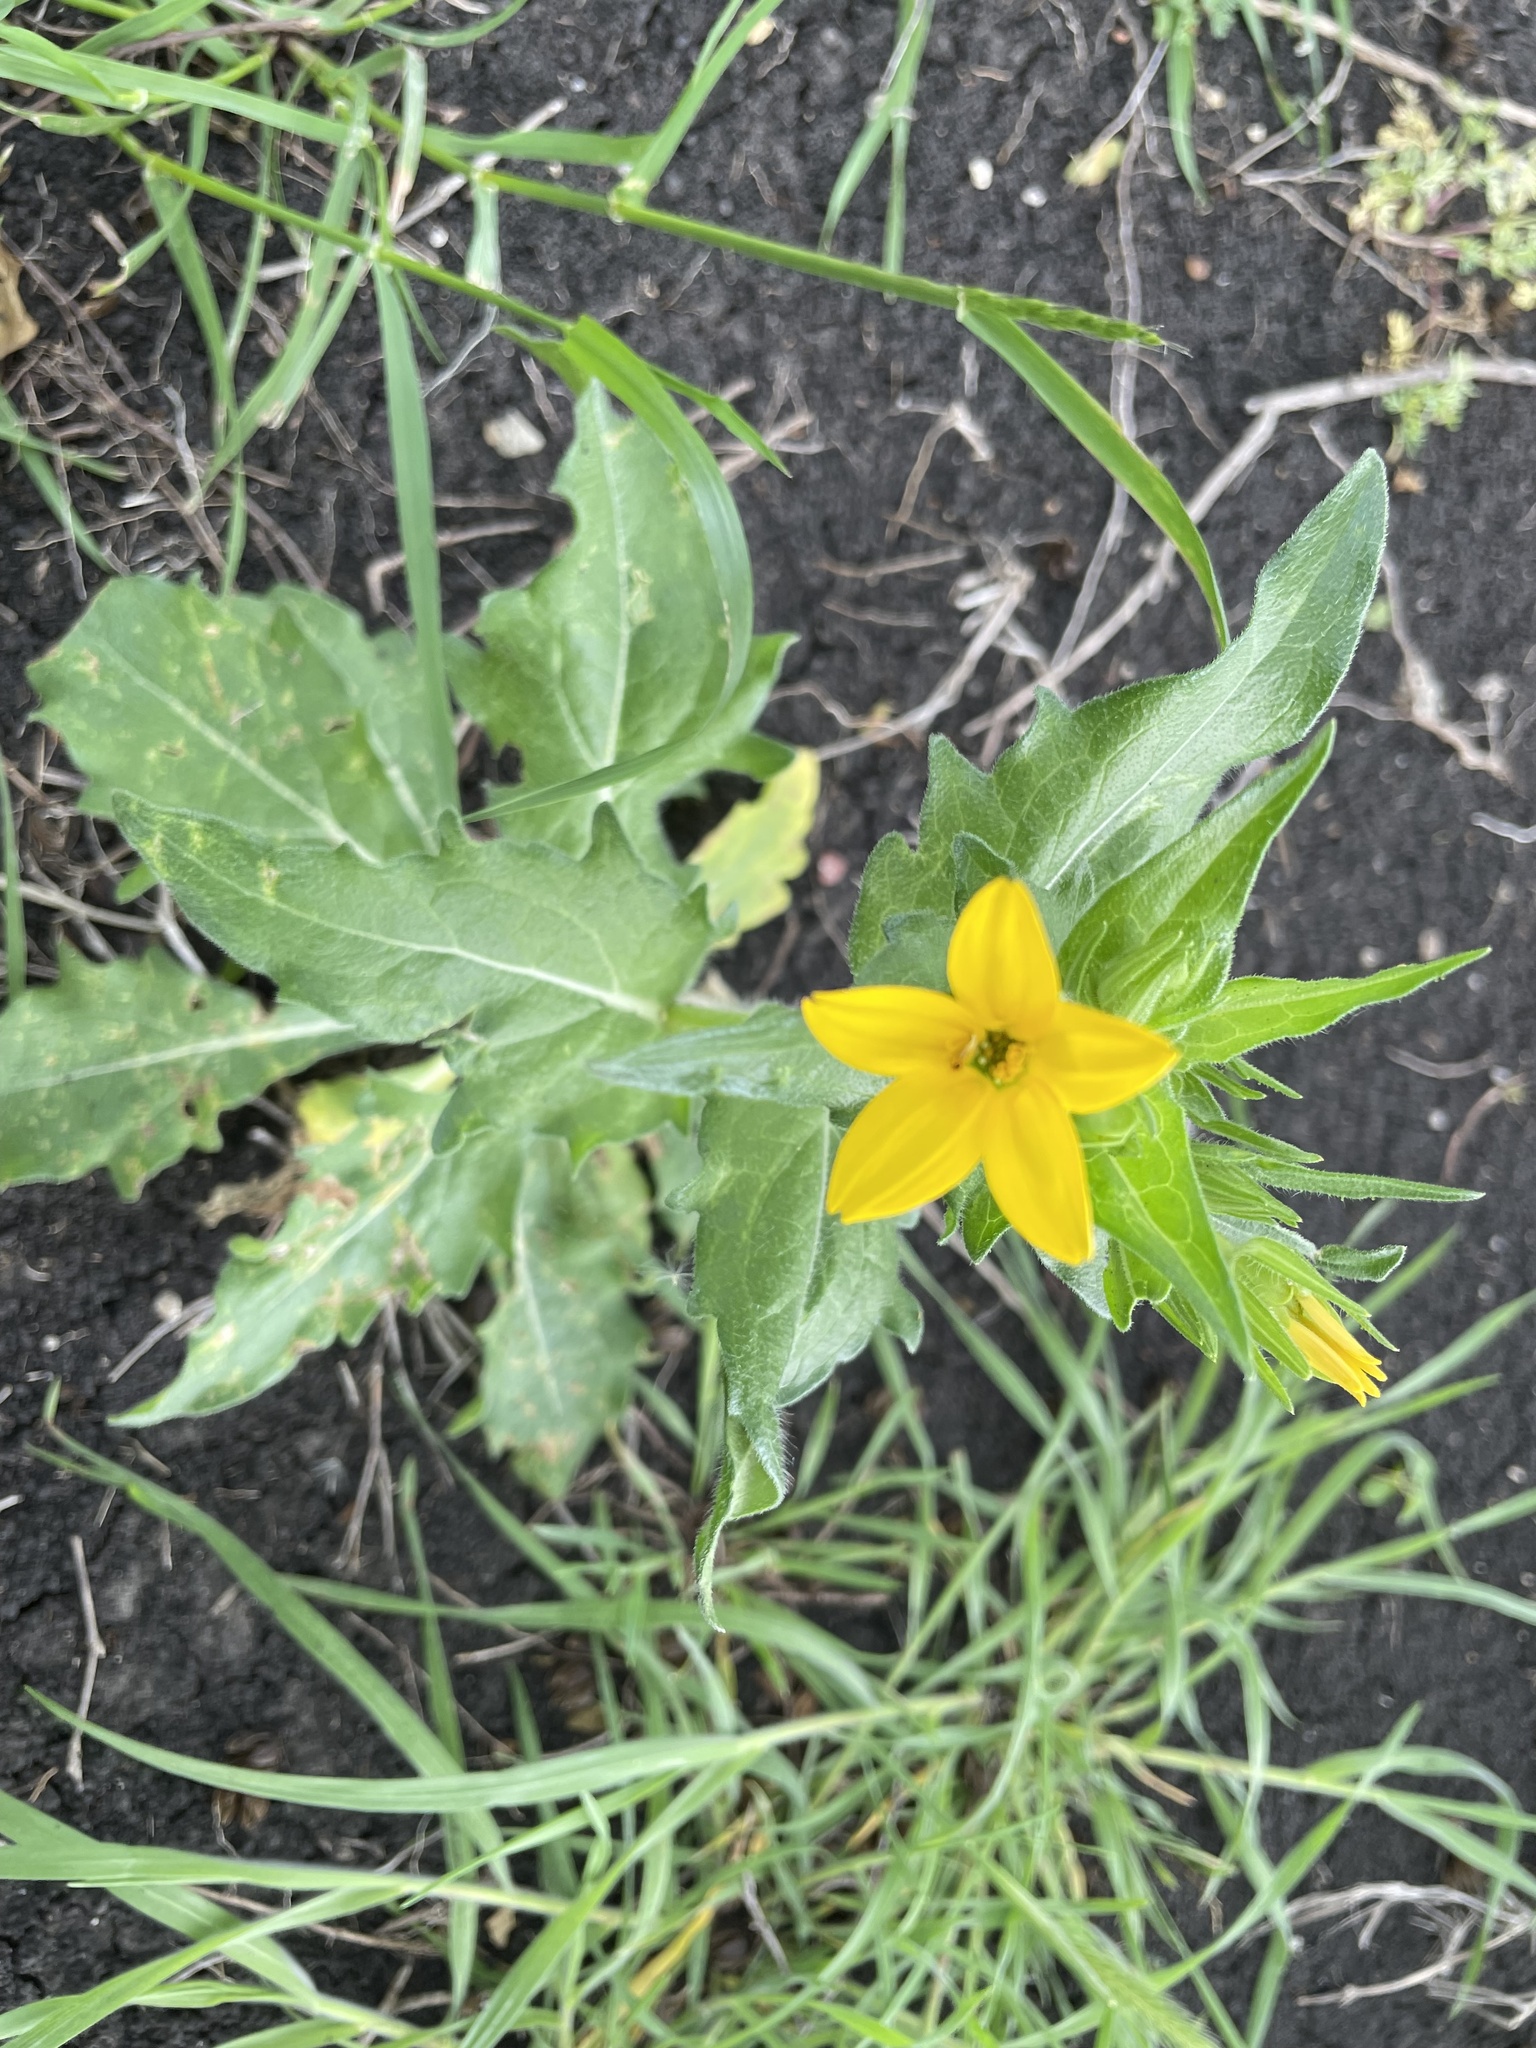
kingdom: Plantae
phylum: Tracheophyta
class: Magnoliopsida
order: Asterales
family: Asteraceae
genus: Lindheimera
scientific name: Lindheimera texana
